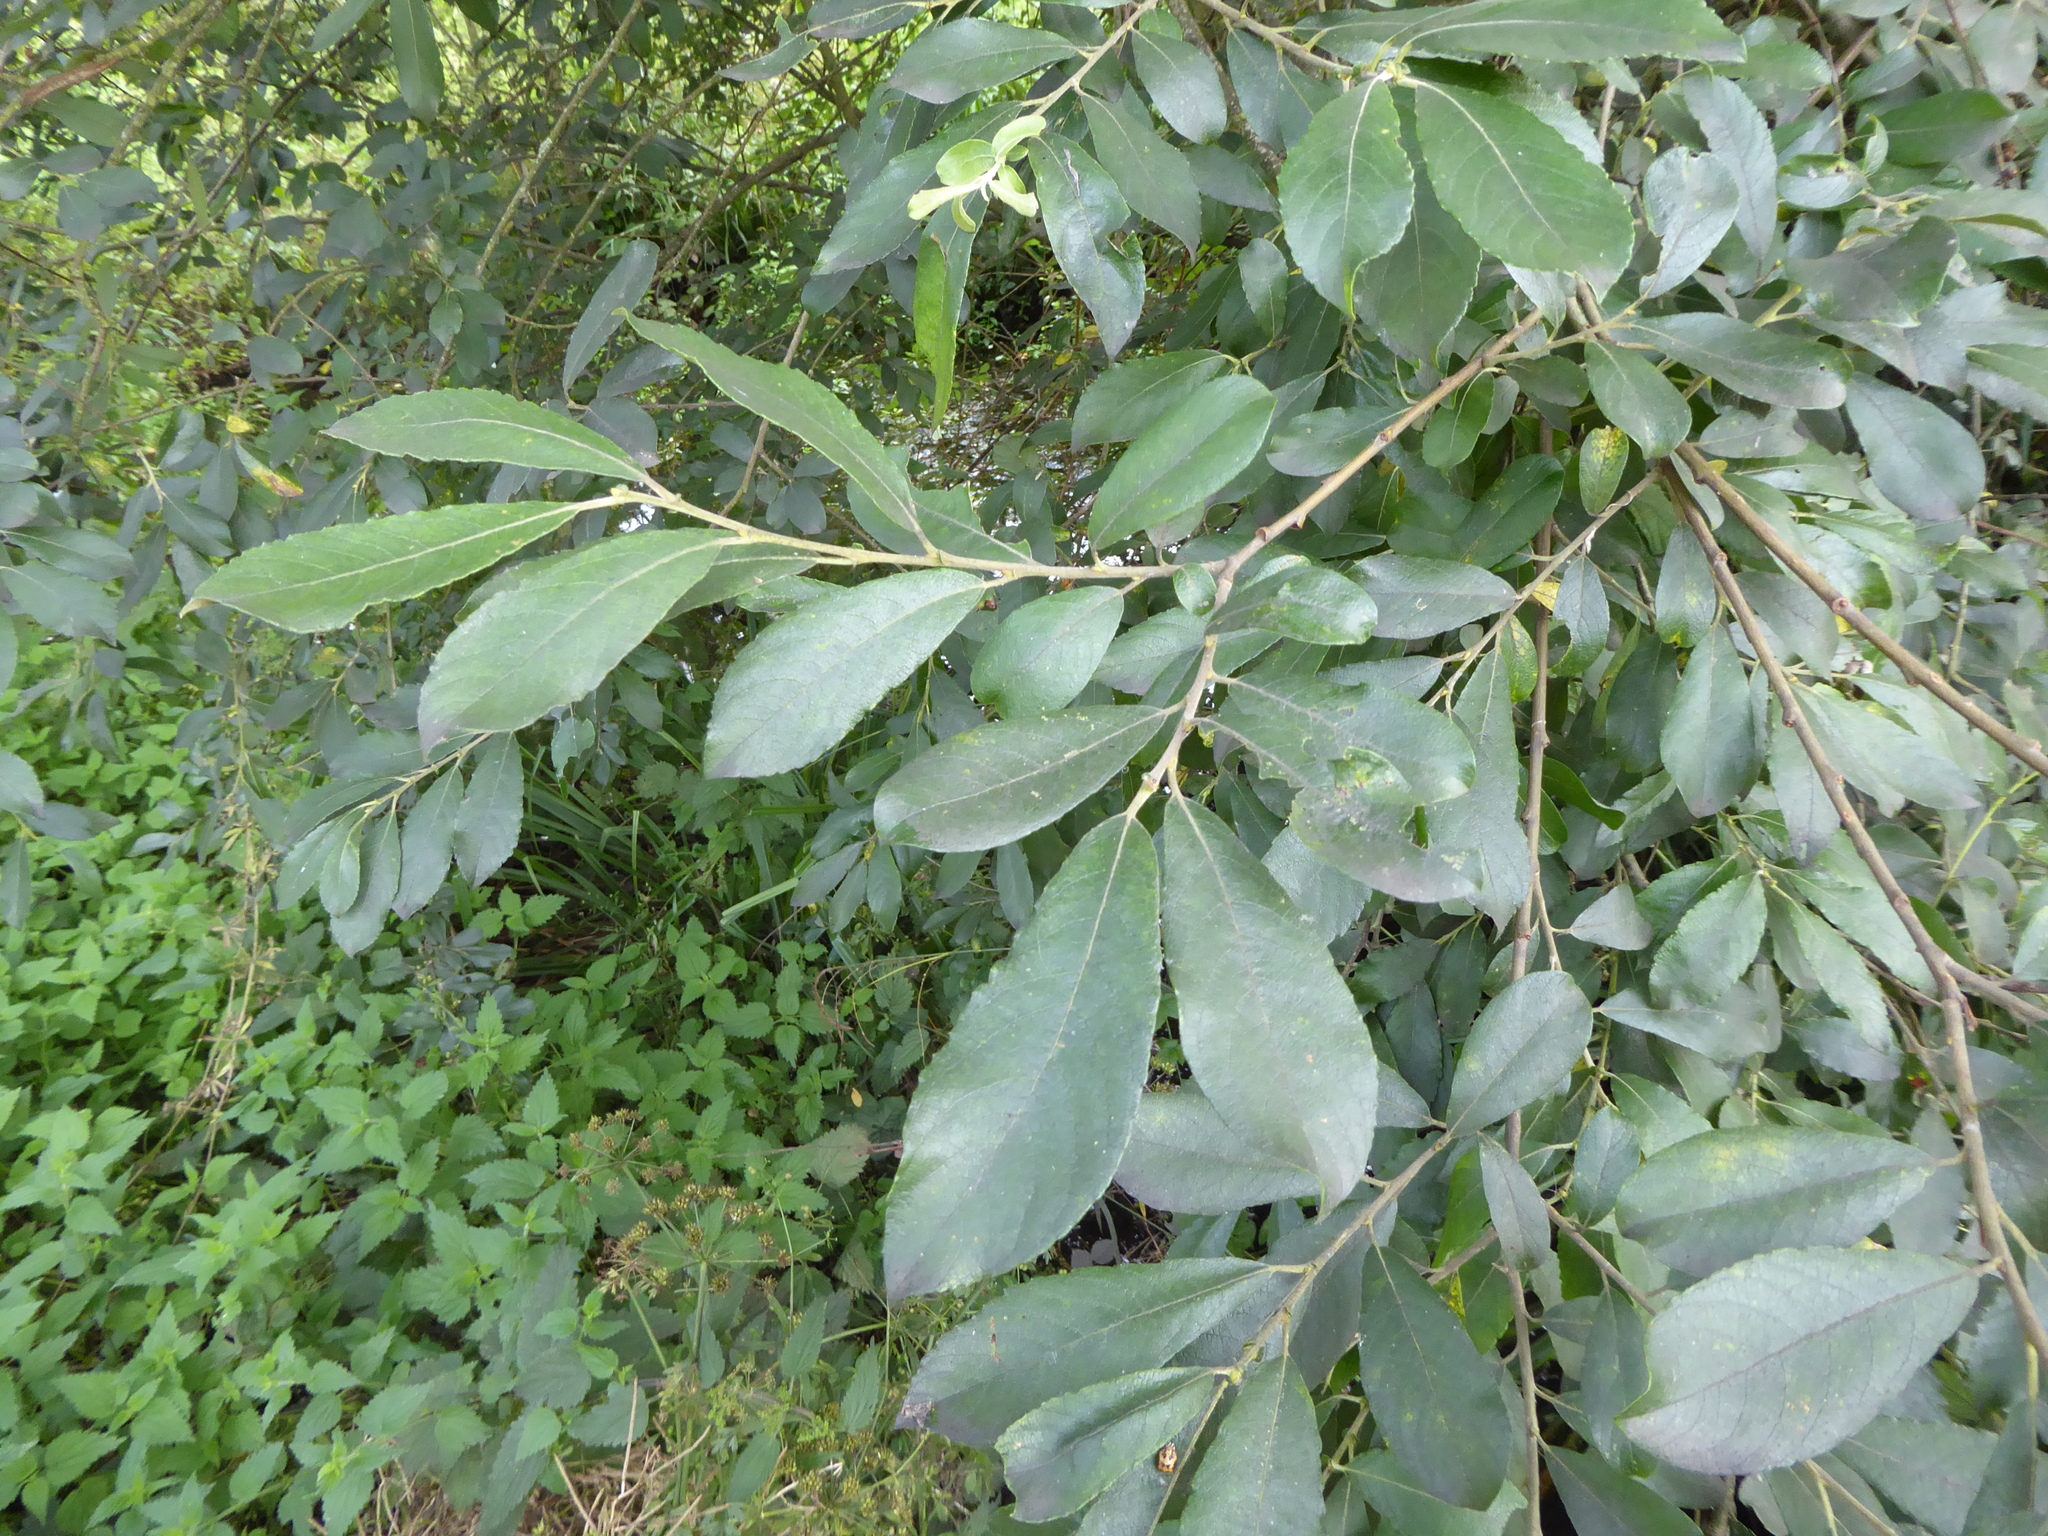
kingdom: Plantae
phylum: Tracheophyta
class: Magnoliopsida
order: Malpighiales
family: Salicaceae
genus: Salix
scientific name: Salix atrocinerea
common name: Rusty willow
